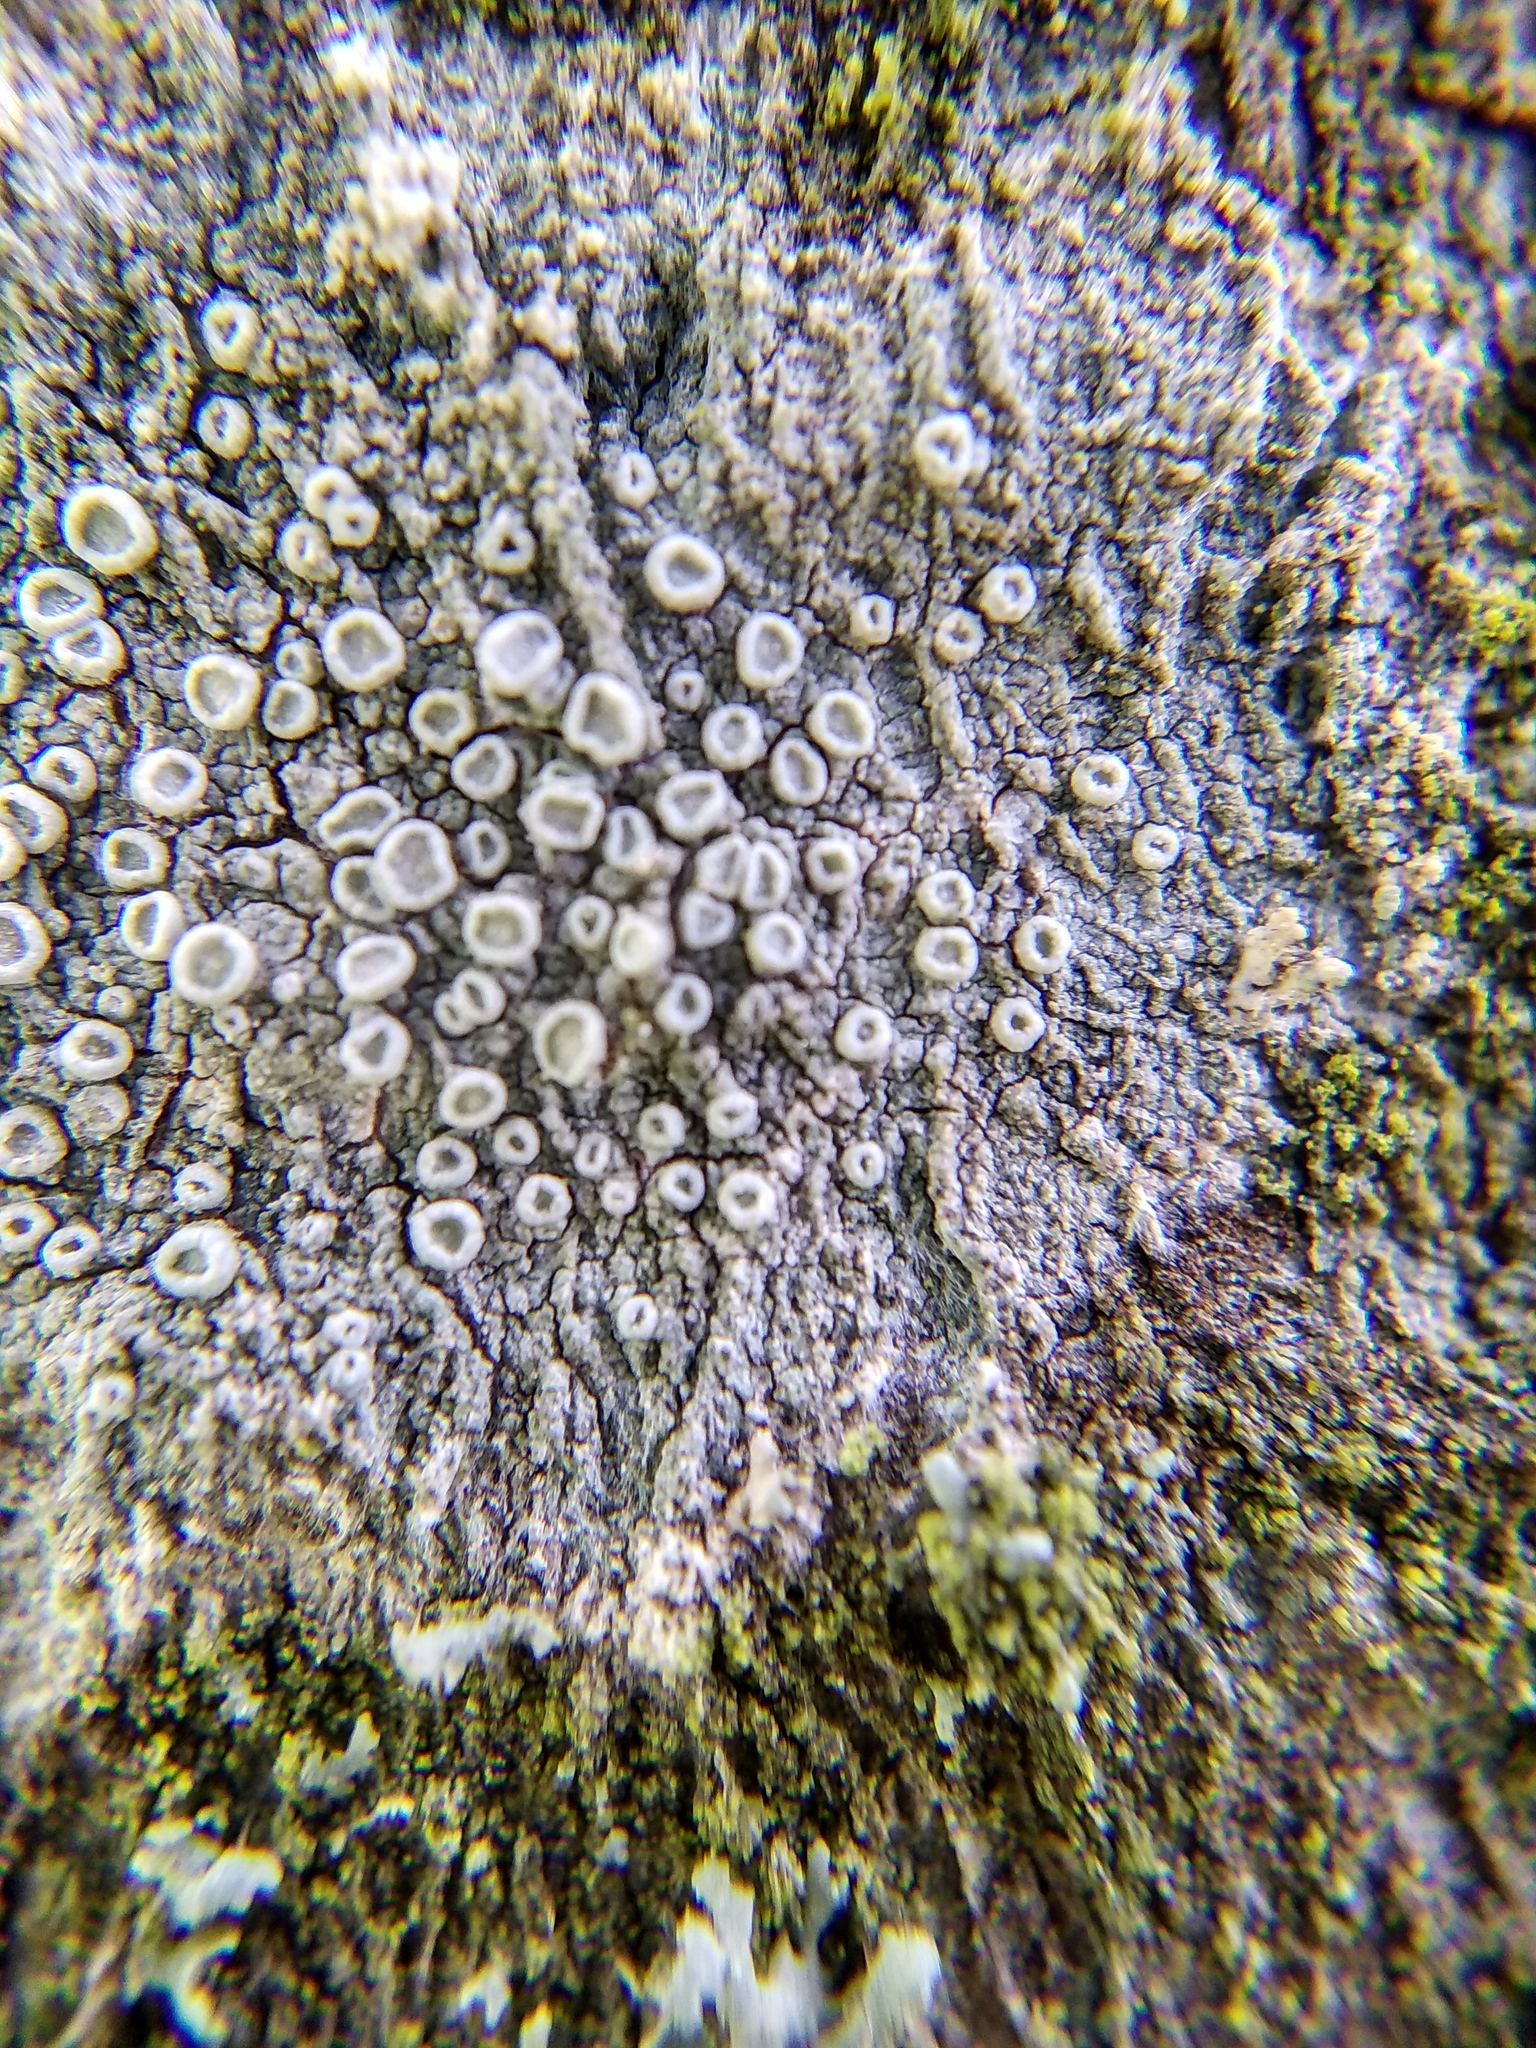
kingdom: Fungi
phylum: Ascomycota
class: Lecanoromycetes
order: Lecanorales
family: Lecanoraceae
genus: Glaucomaria
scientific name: Glaucomaria carpinea
